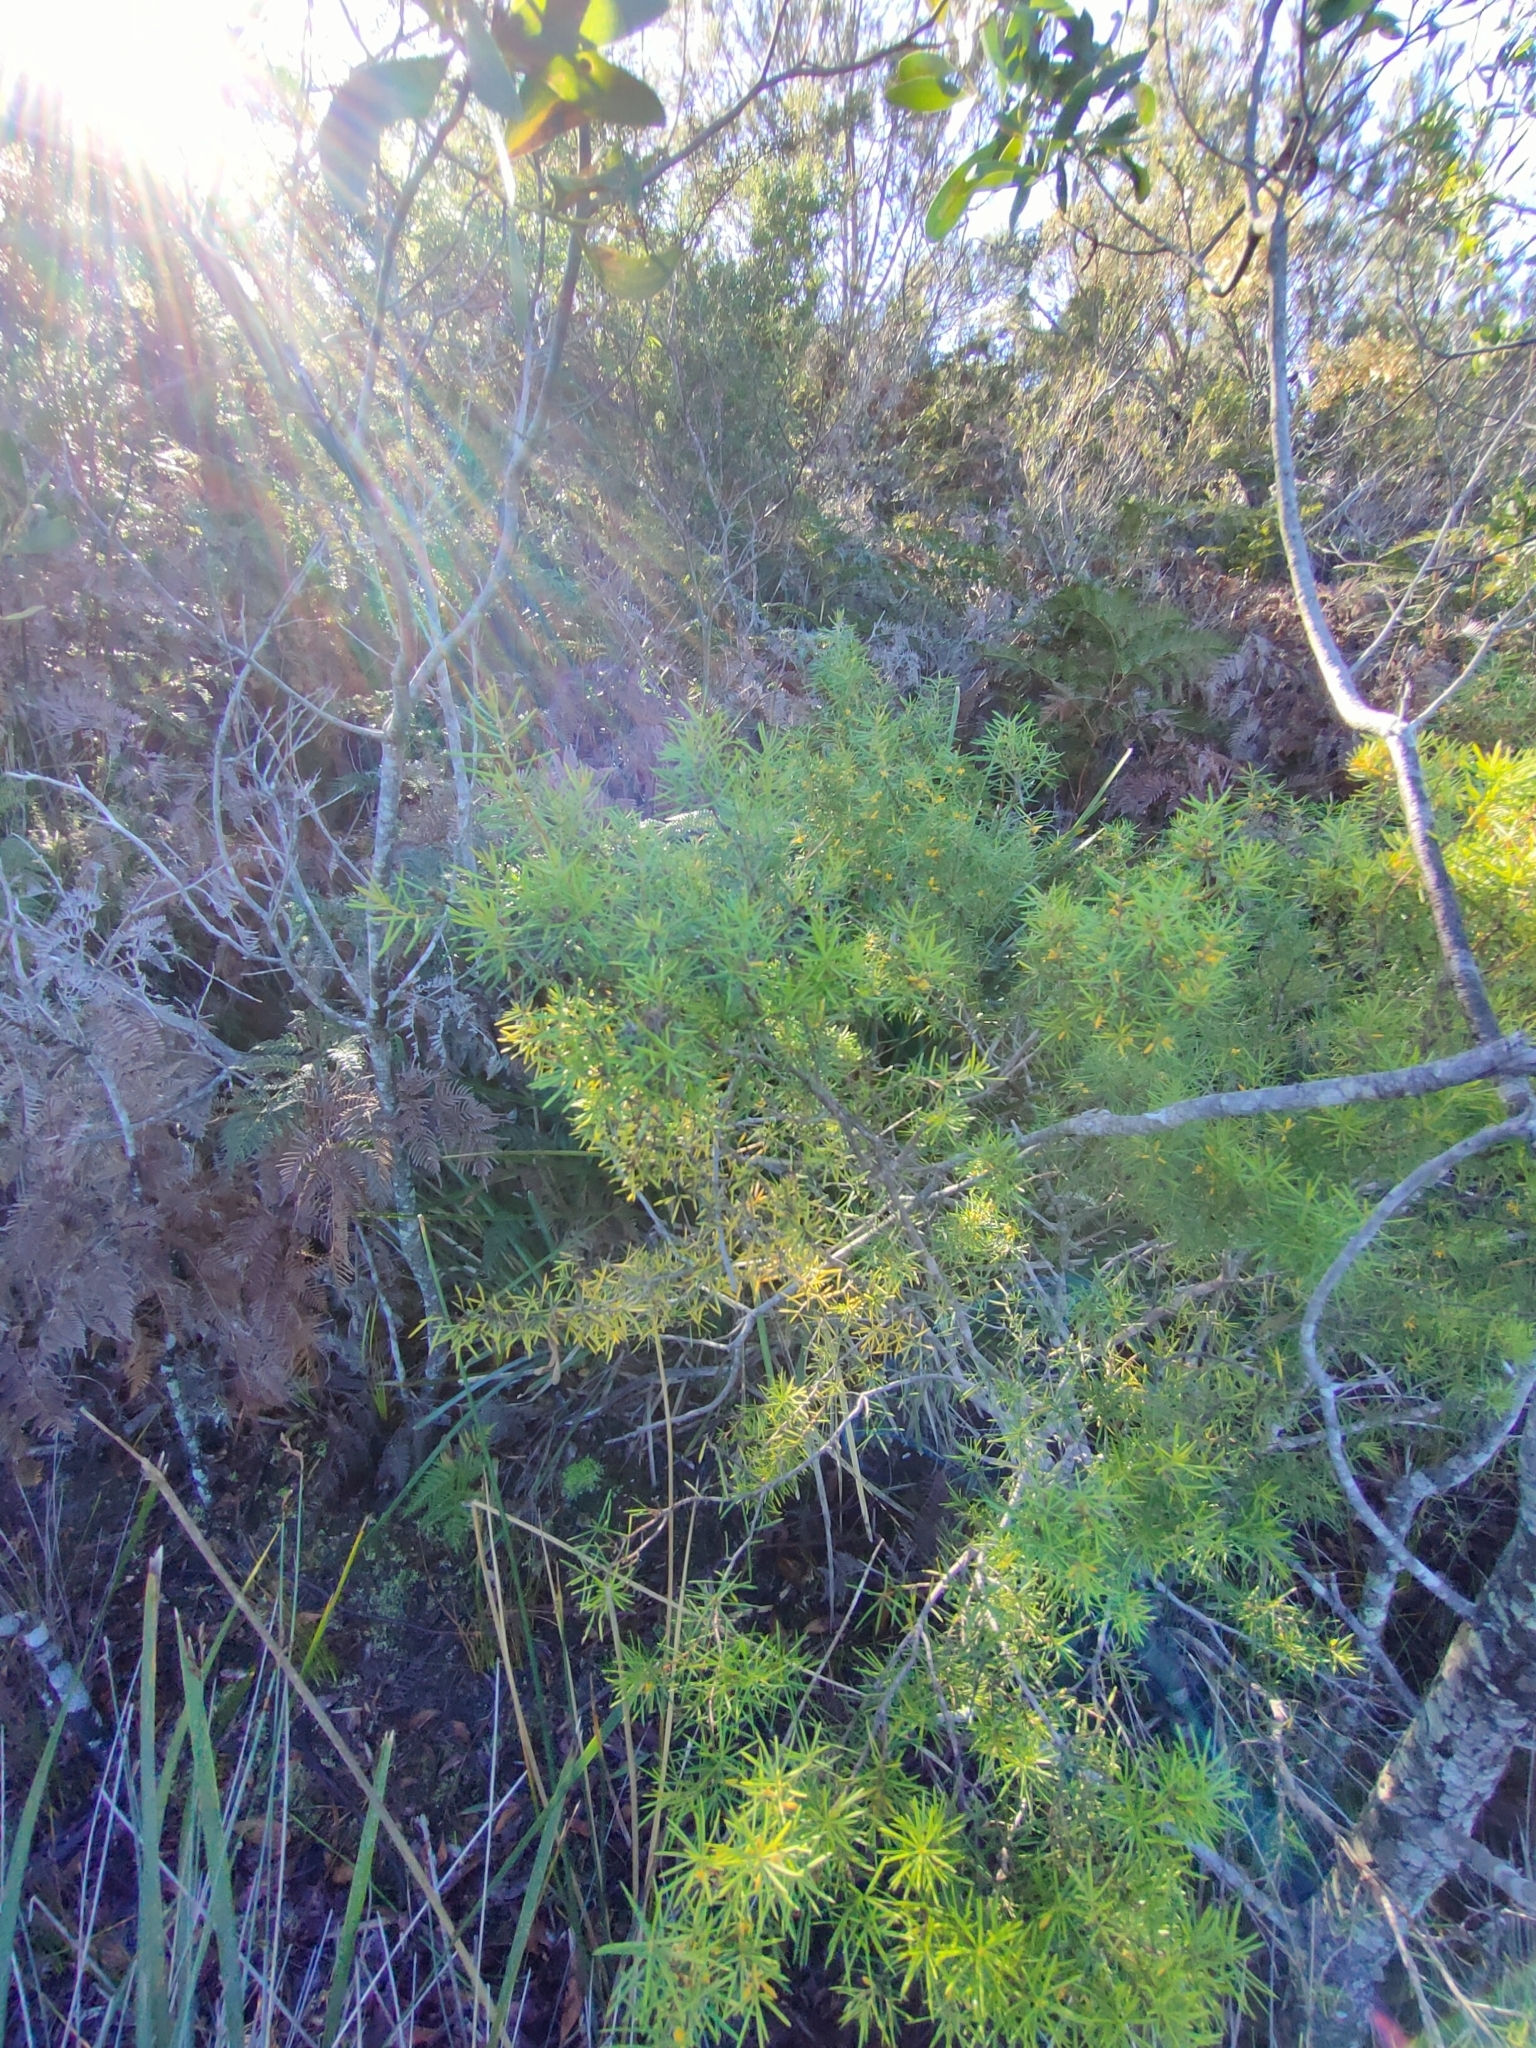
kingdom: Plantae
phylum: Tracheophyta
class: Magnoliopsida
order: Proteales
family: Proteaceae
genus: Persoonia
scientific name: Persoonia juniperina
